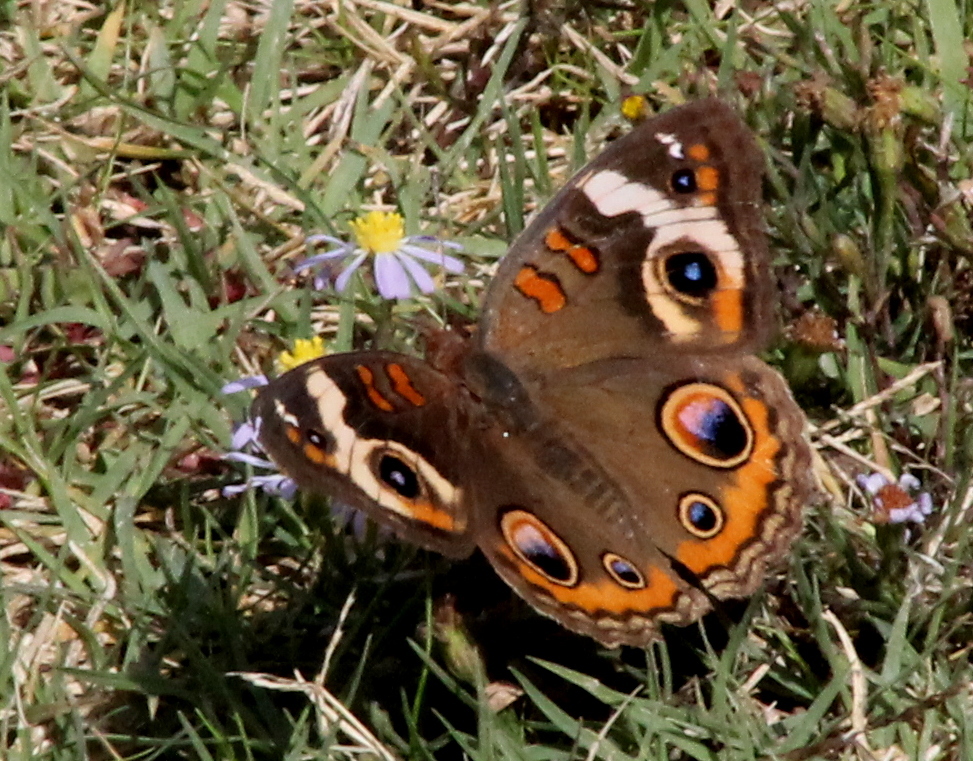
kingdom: Animalia
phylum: Arthropoda
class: Insecta
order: Lepidoptera
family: Nymphalidae
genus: Junonia
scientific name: Junonia coenia
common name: Common buckeye
